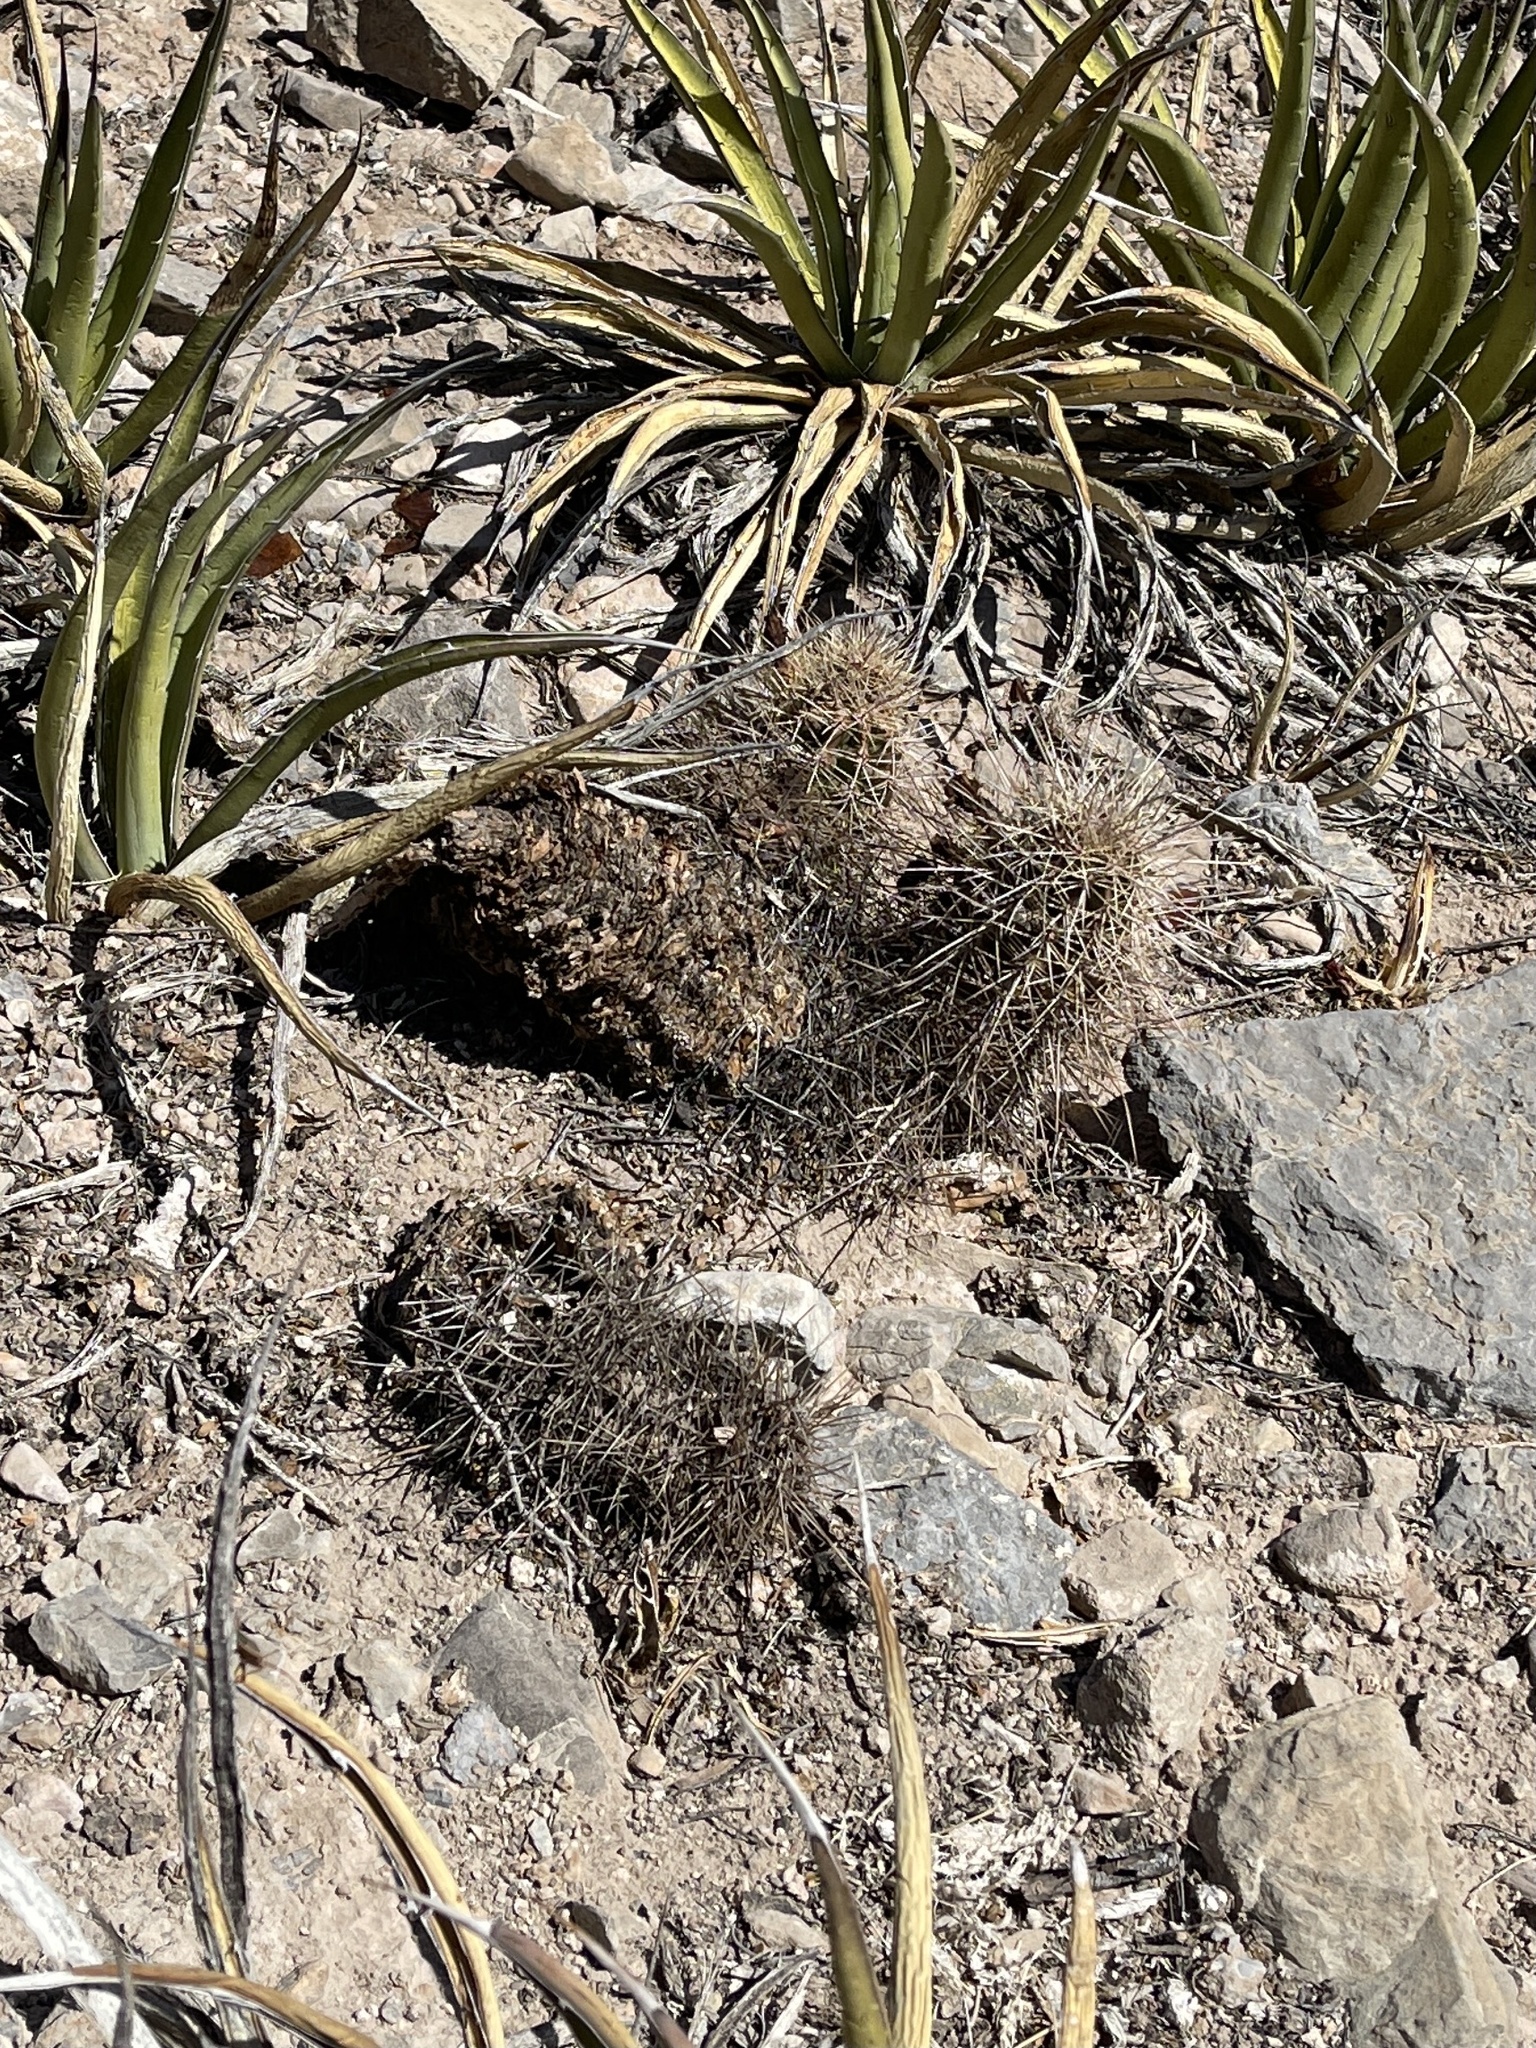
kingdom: Plantae
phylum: Tracheophyta
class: Magnoliopsida
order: Caryophyllales
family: Cactaceae
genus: Echinocereus
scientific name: Echinocereus coccineus
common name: Scarlet hedgehog cactus
